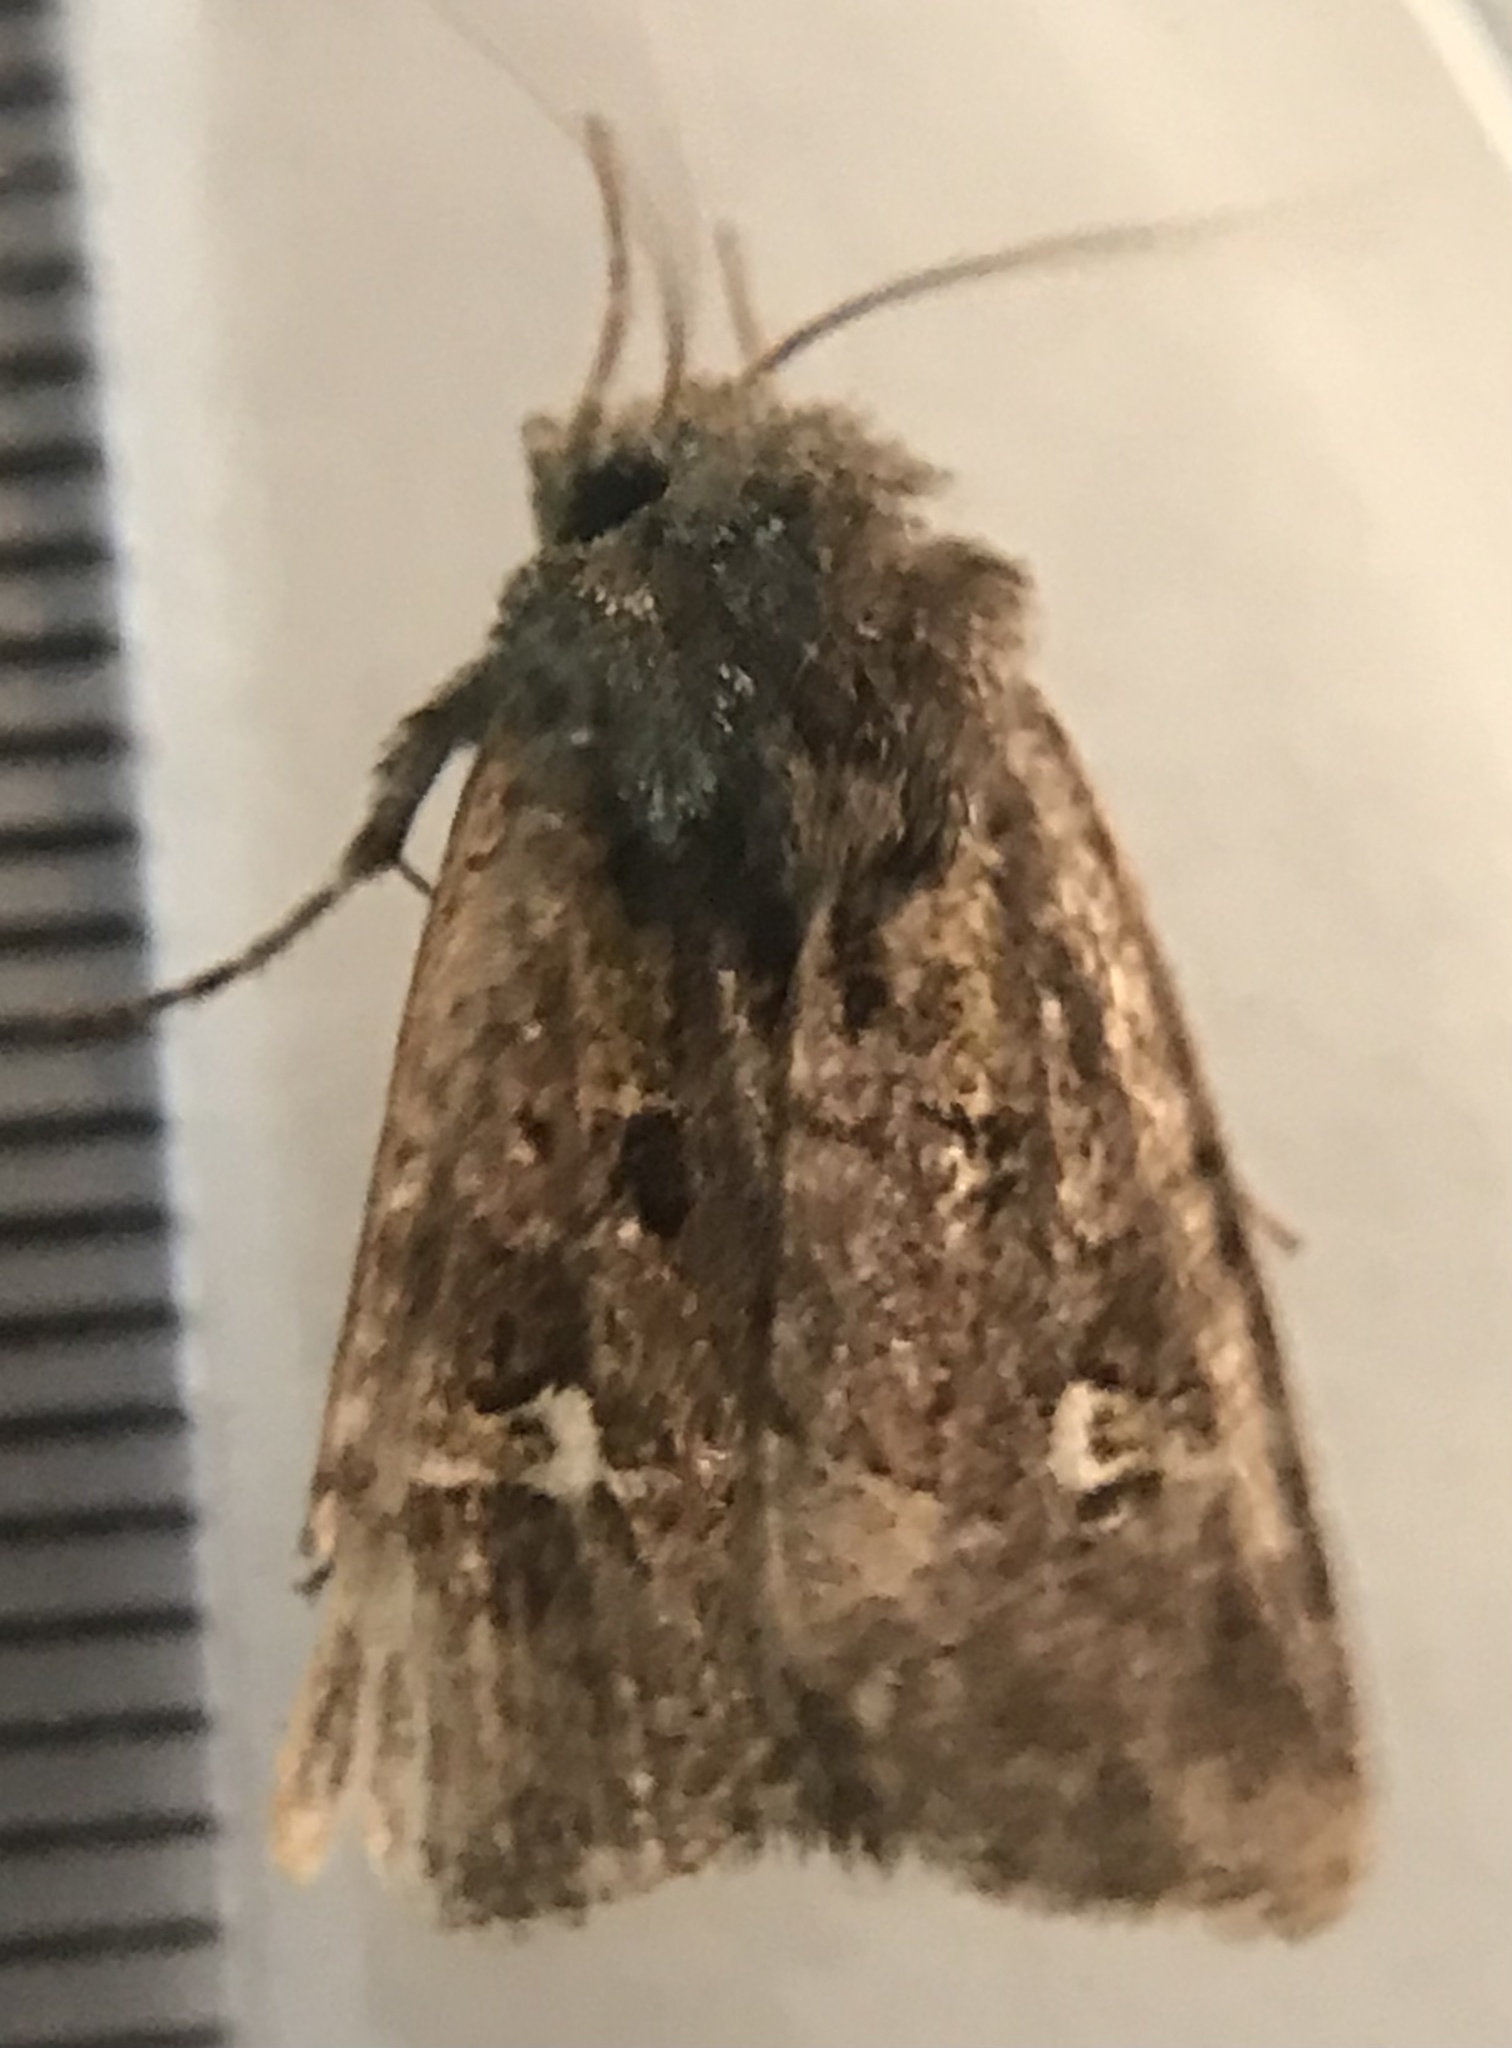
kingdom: Animalia
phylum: Arthropoda
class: Insecta
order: Lepidoptera
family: Noctuidae
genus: Lacinipolia
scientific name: Lacinipolia renigera
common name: Kidney-spotted minor
